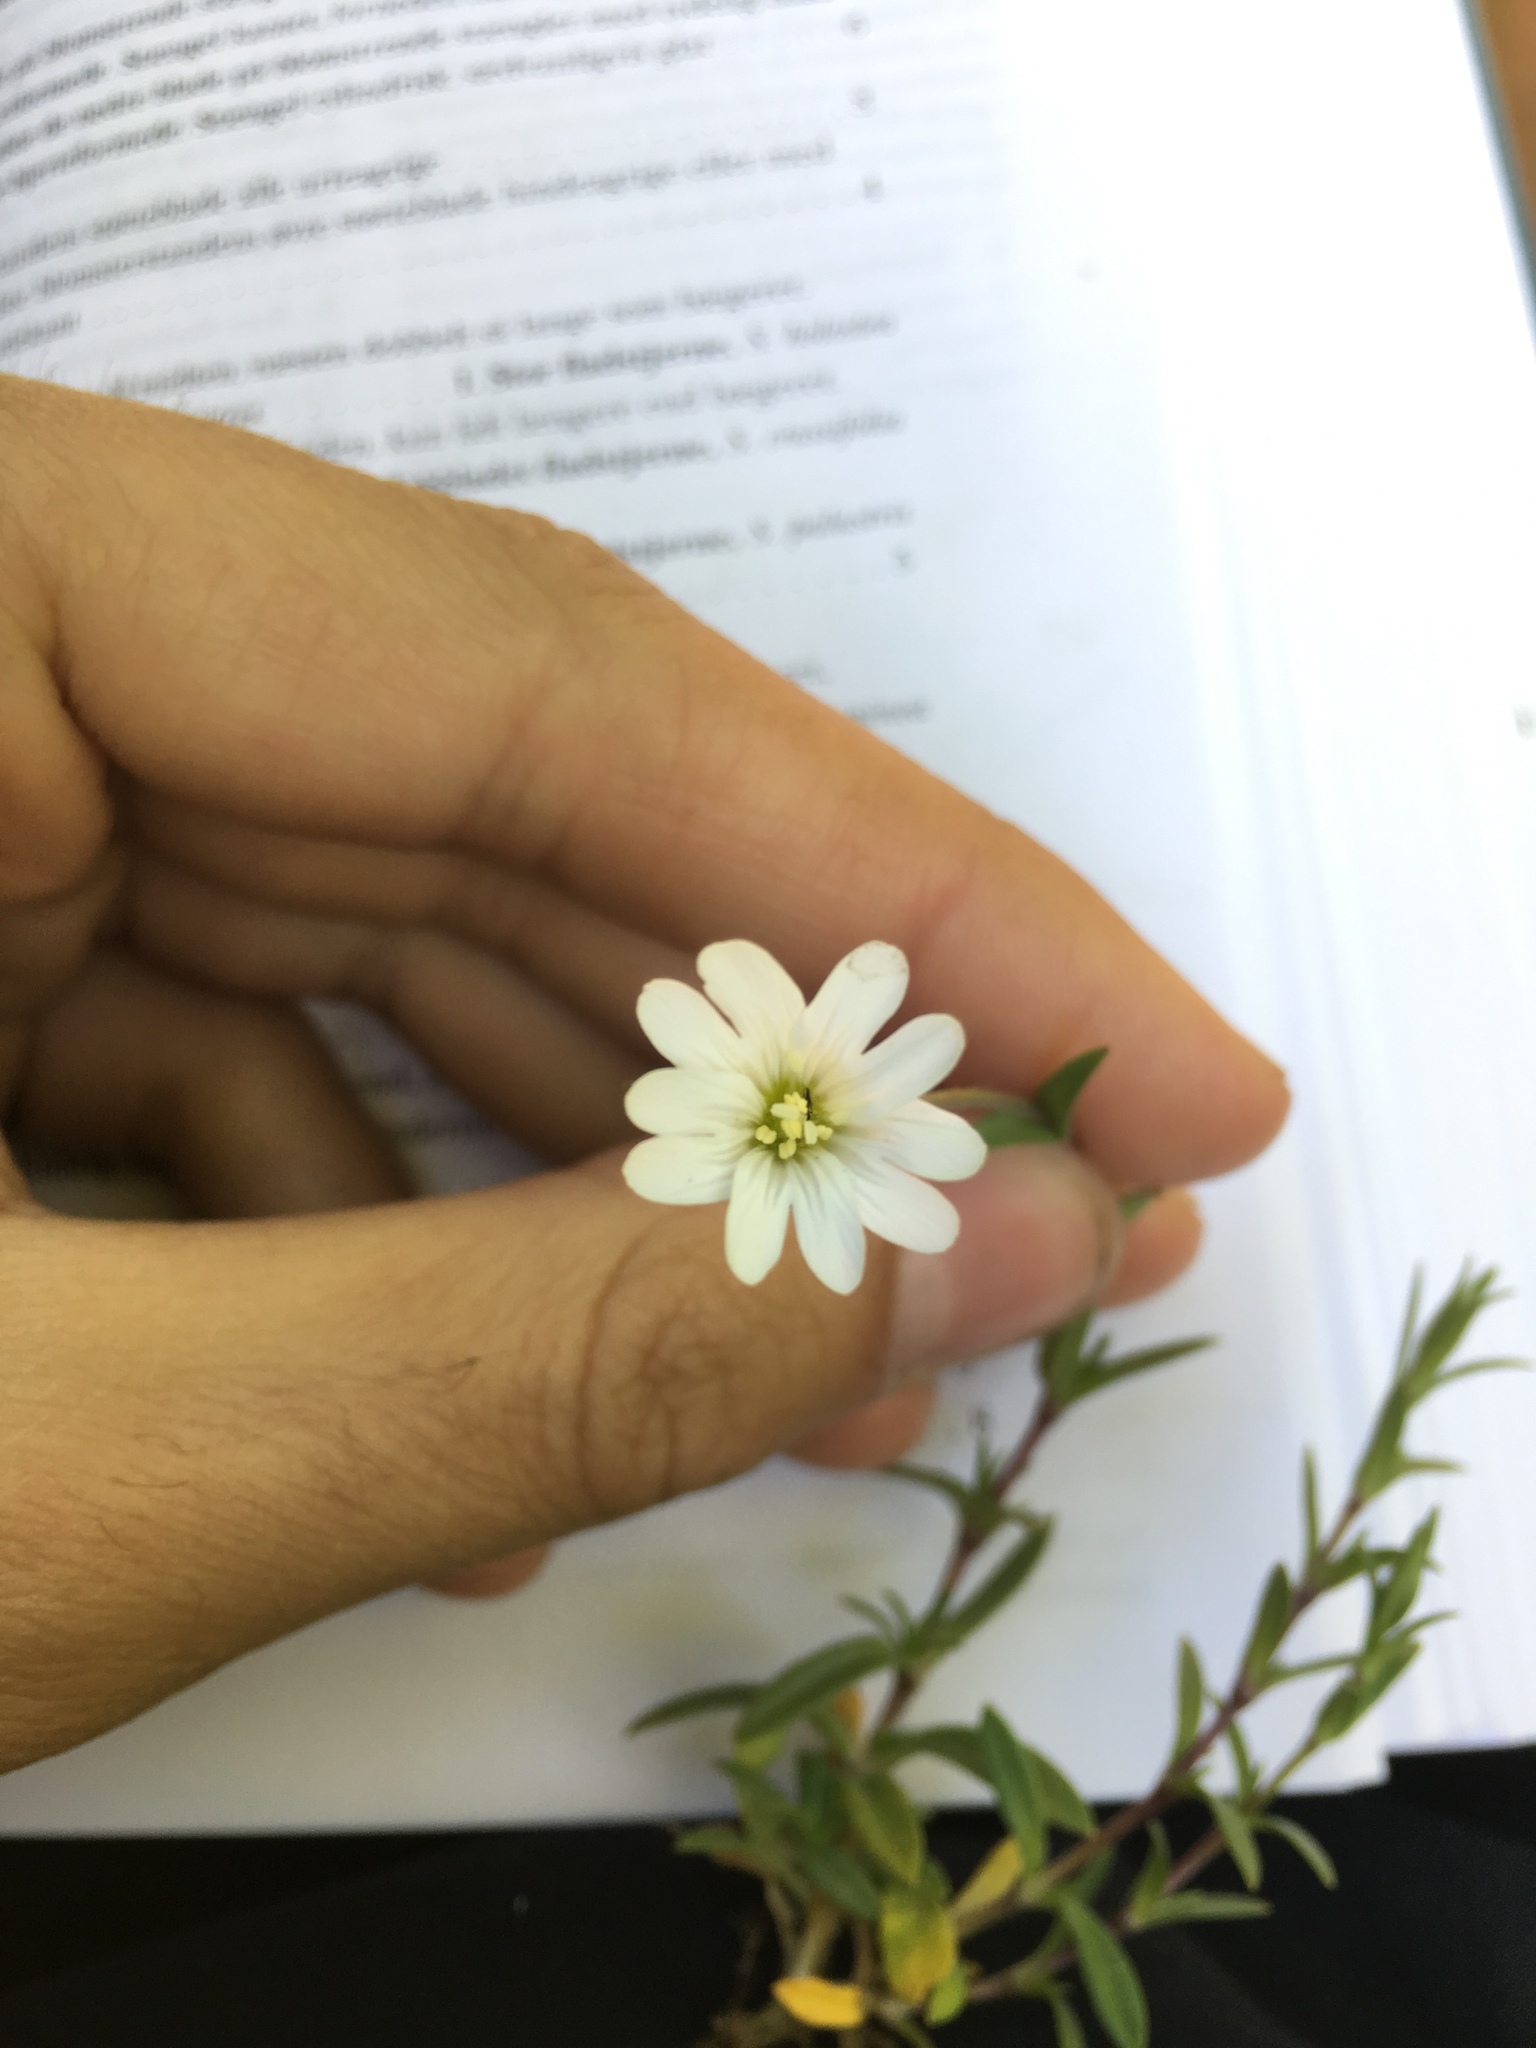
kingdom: Plantae
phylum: Tracheophyta
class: Magnoliopsida
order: Caryophyllales
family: Caryophyllaceae
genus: Cerastium
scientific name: Cerastium arvense
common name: Field mouse-ear
